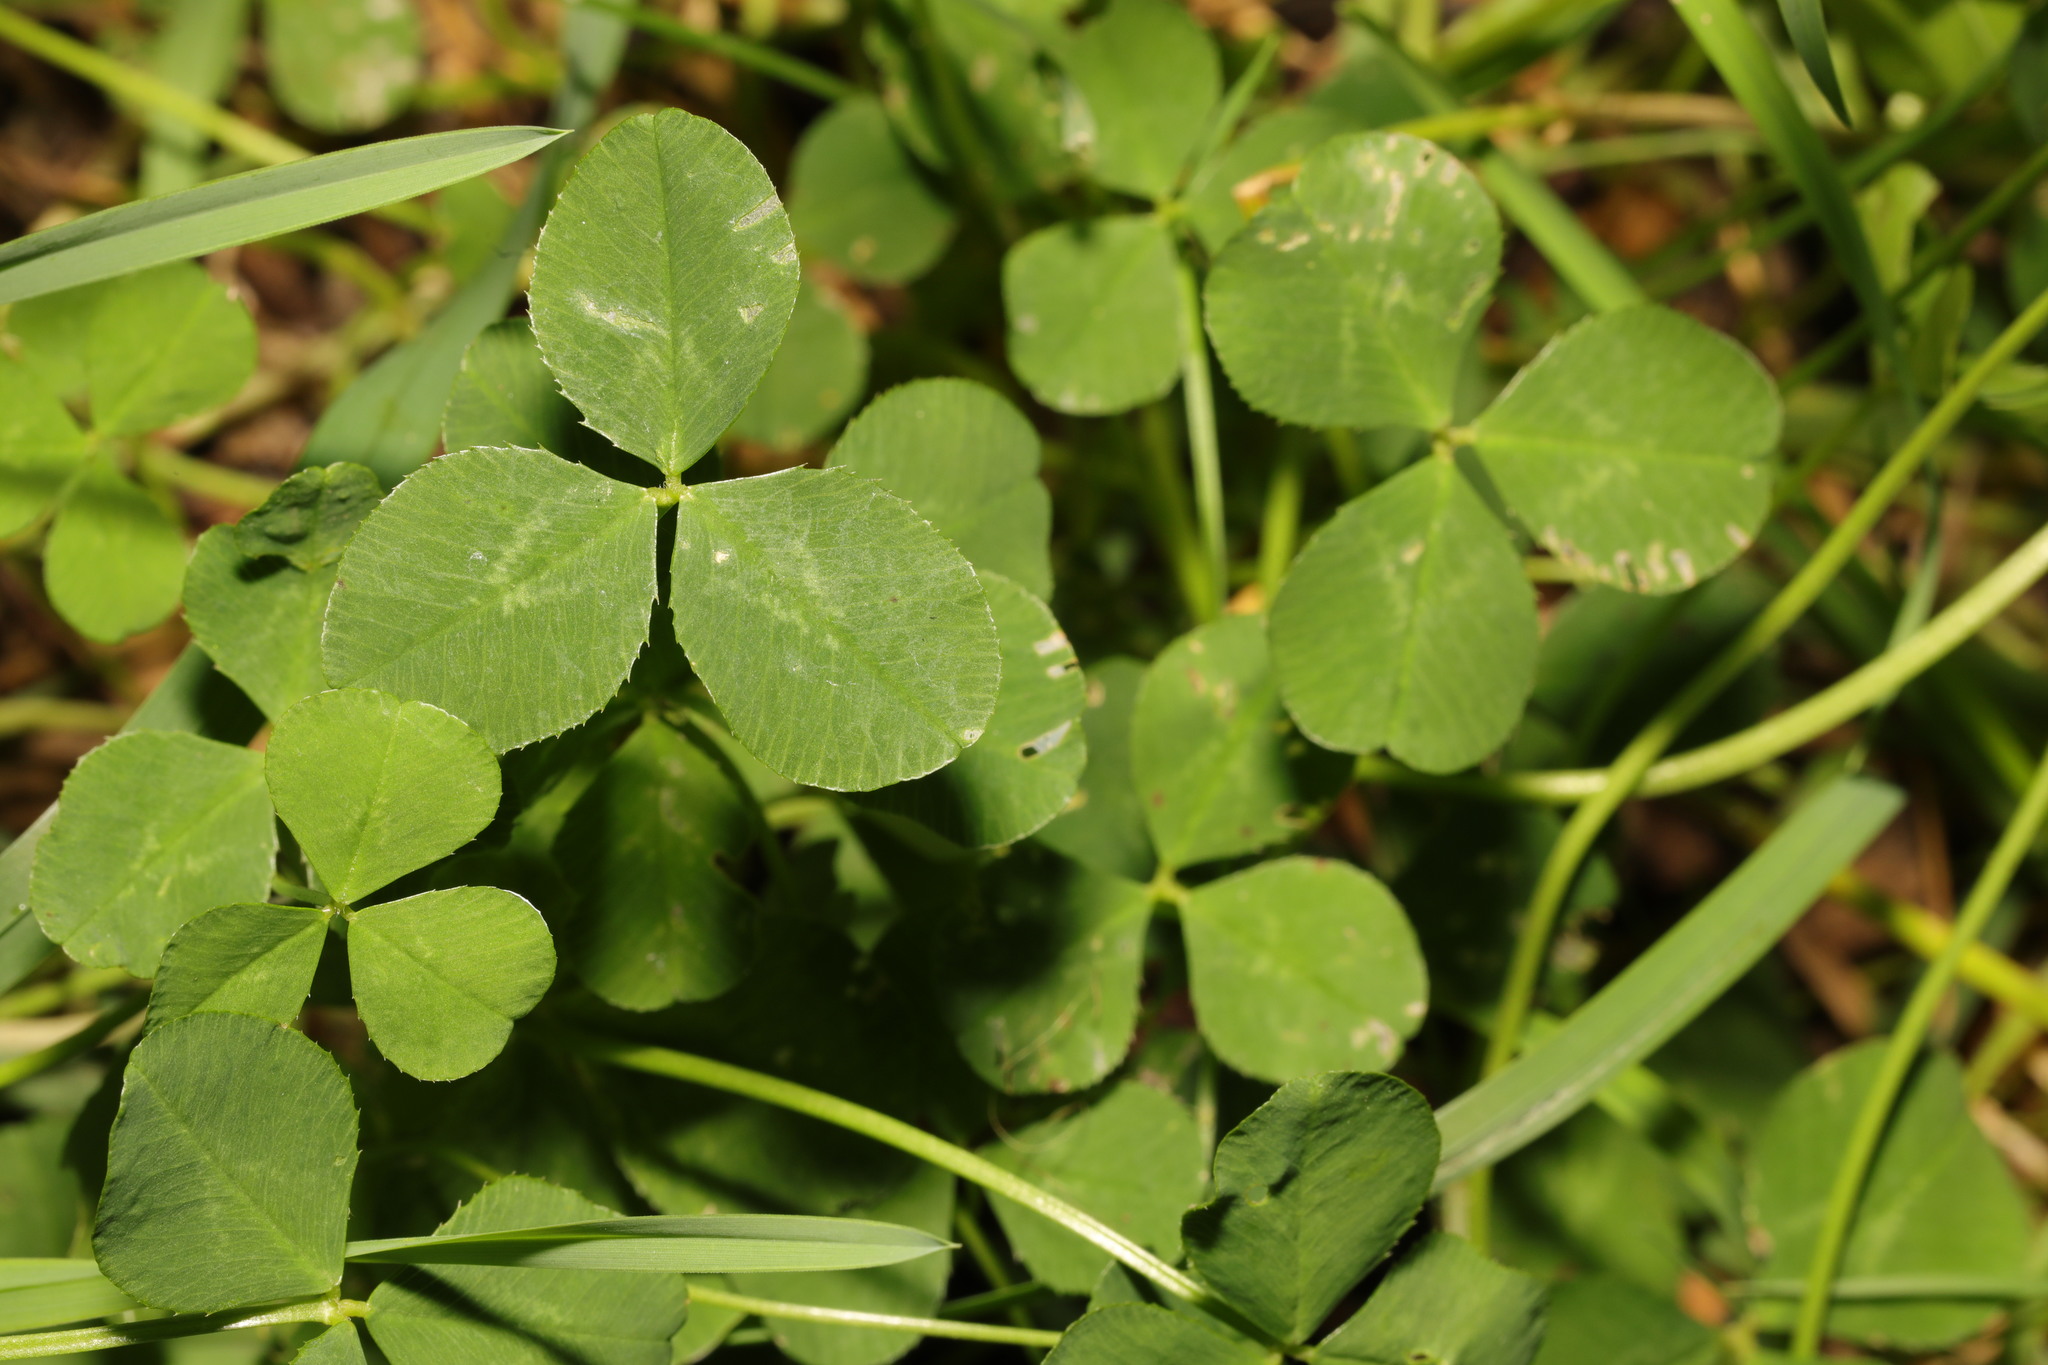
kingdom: Plantae
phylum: Tracheophyta
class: Magnoliopsida
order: Fabales
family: Fabaceae
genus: Trifolium
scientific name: Trifolium repens
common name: White clover
